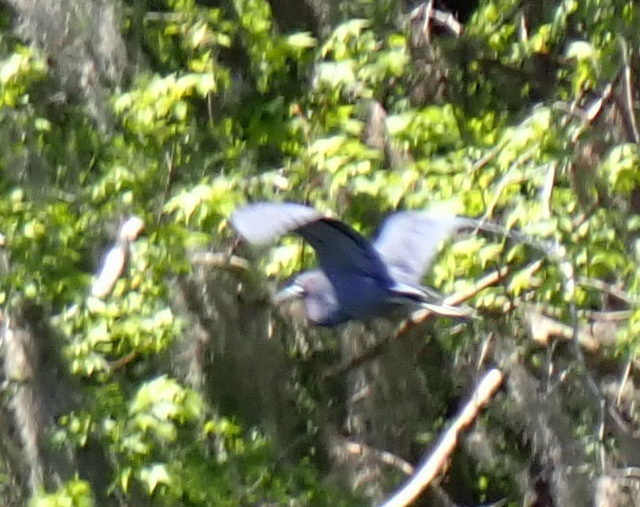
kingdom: Animalia
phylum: Chordata
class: Aves
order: Pelecaniformes
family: Ardeidae
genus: Egretta
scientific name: Egretta caerulea
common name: Little blue heron
